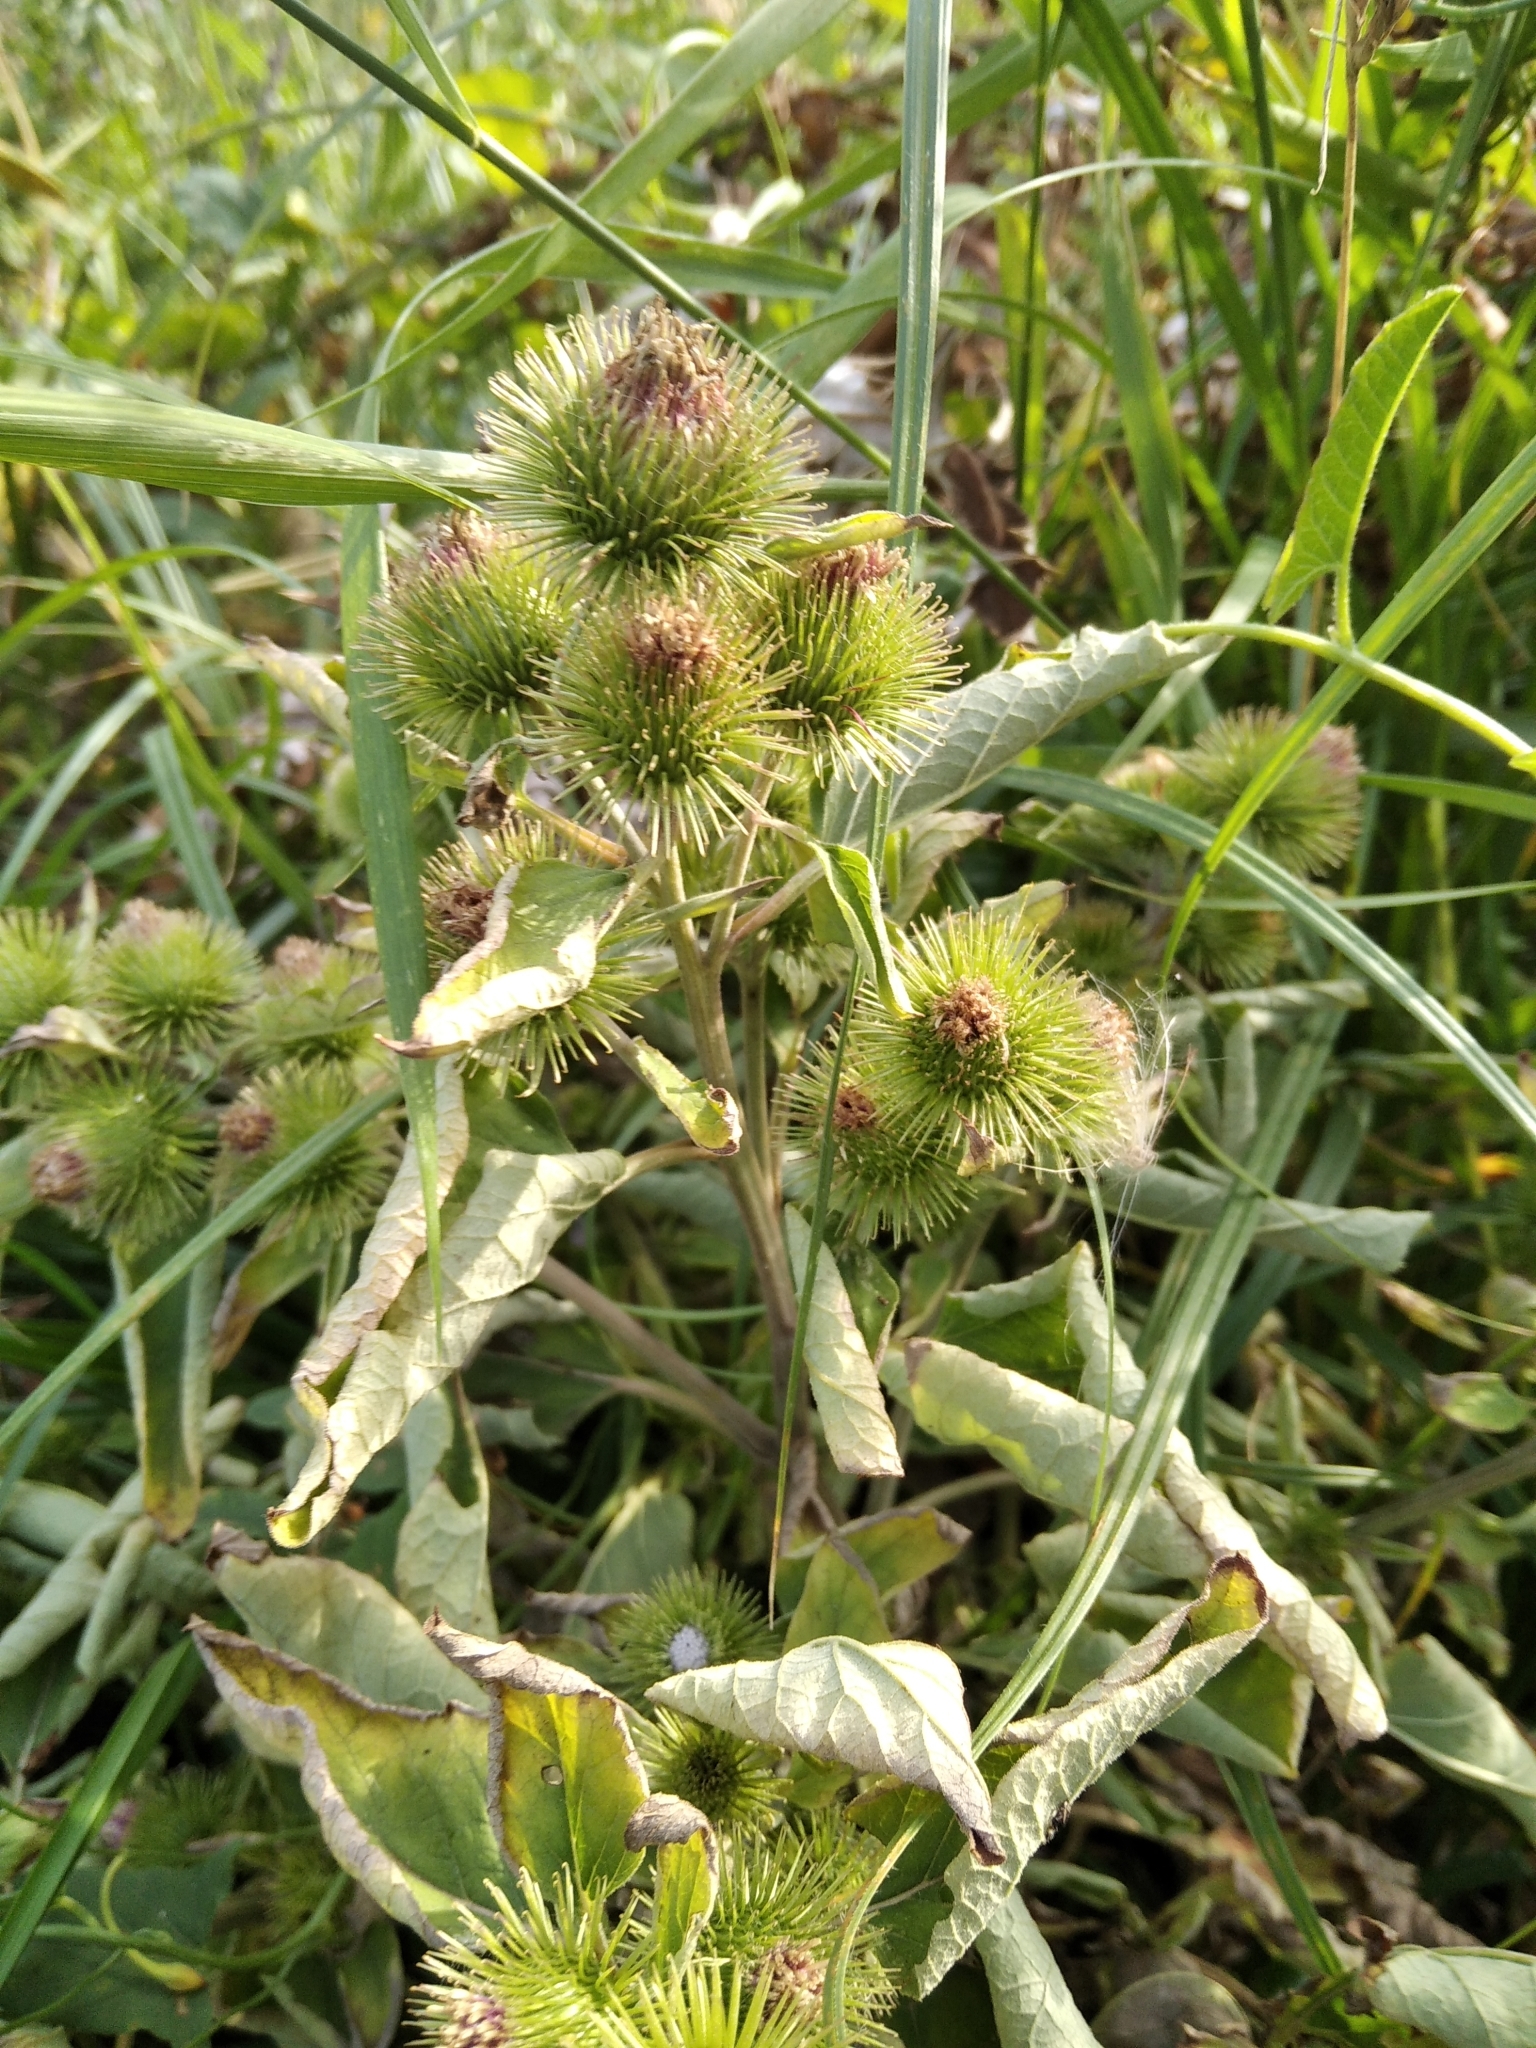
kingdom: Plantae
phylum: Tracheophyta
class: Magnoliopsida
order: Asterales
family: Asteraceae
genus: Arctium
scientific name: Arctium minus
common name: Lesser burdock
